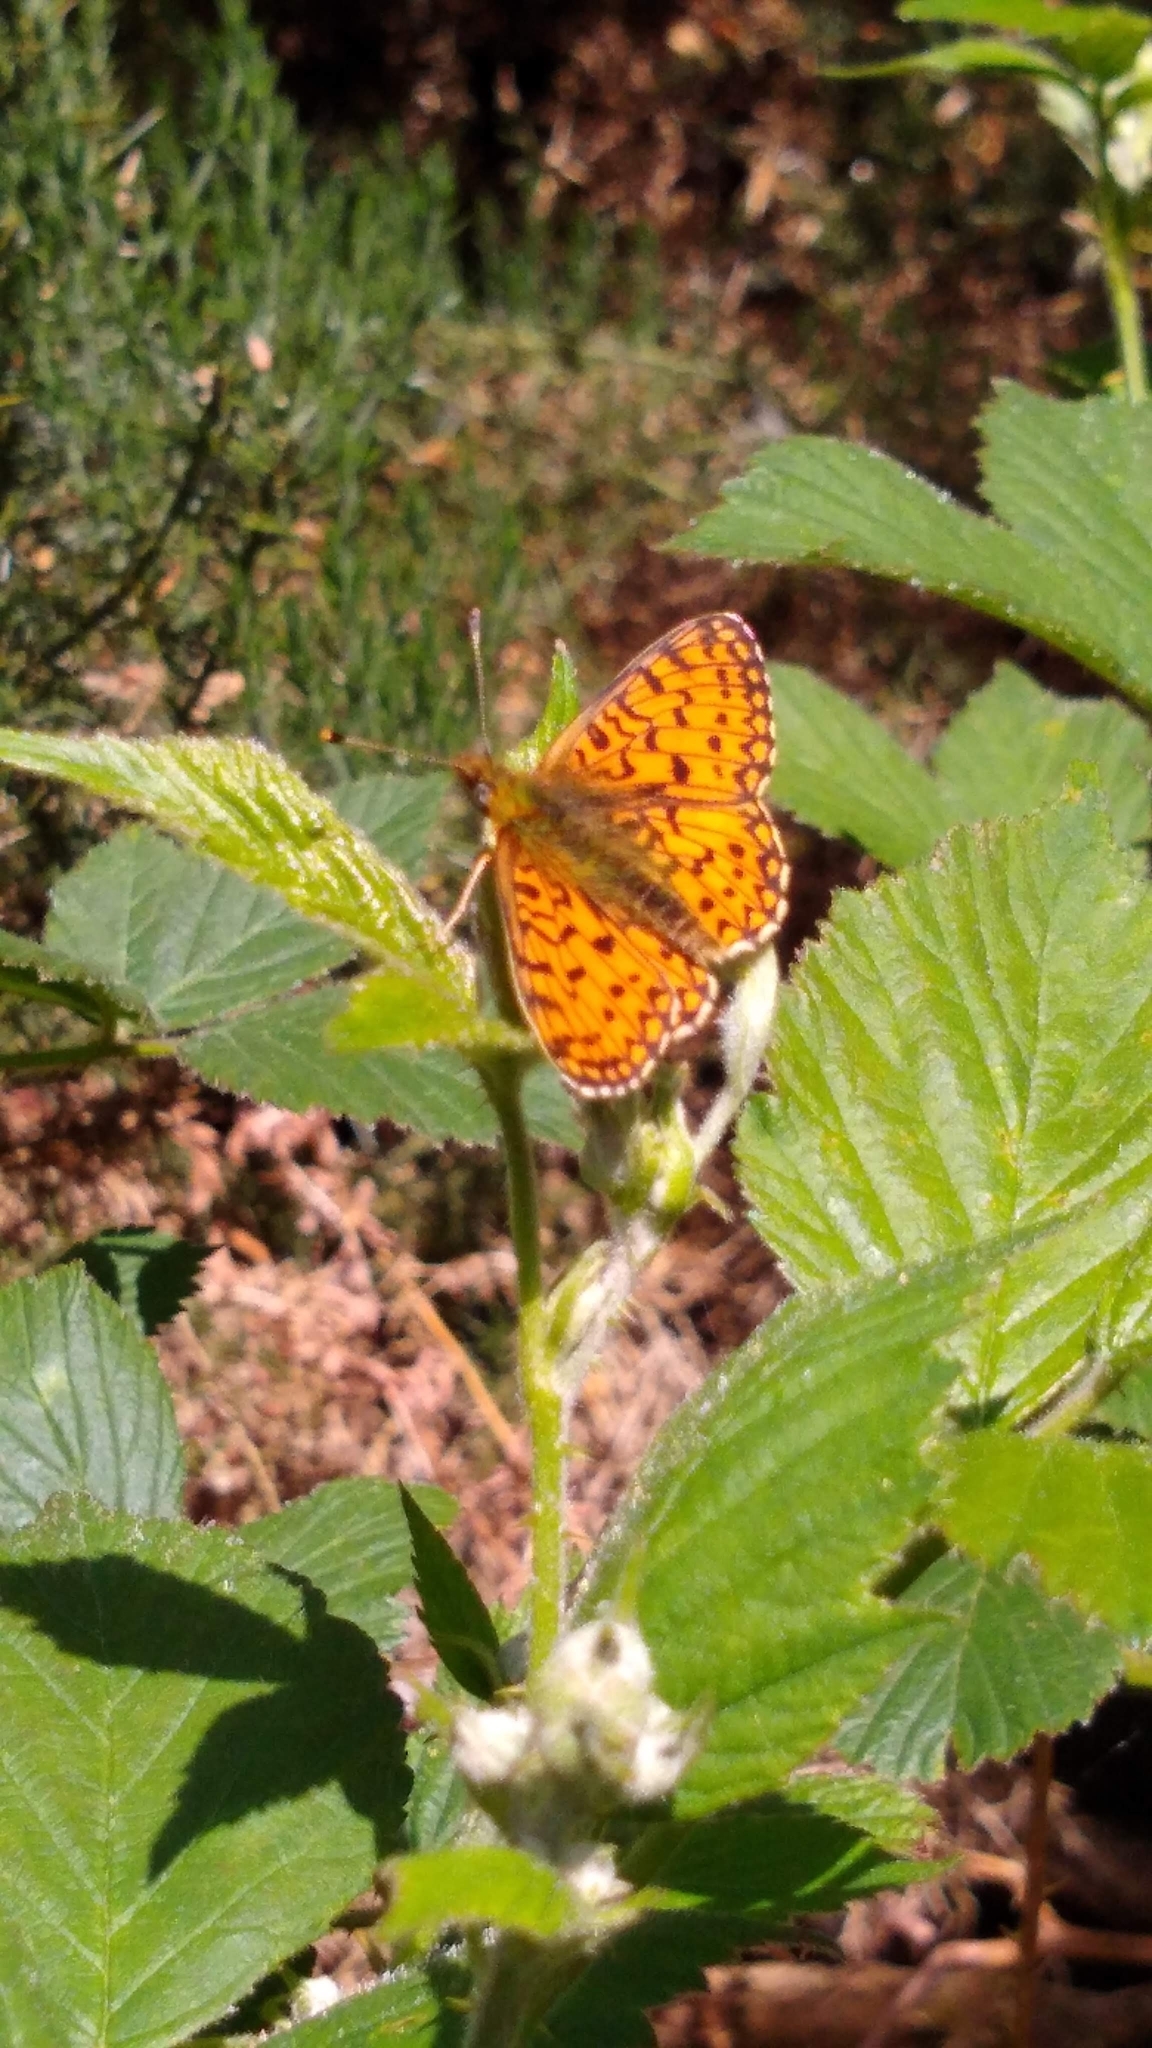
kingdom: Animalia
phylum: Arthropoda
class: Insecta
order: Lepidoptera
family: Nymphalidae
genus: Boloria
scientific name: Boloria selene
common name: Small pearl-bordered fritillary
